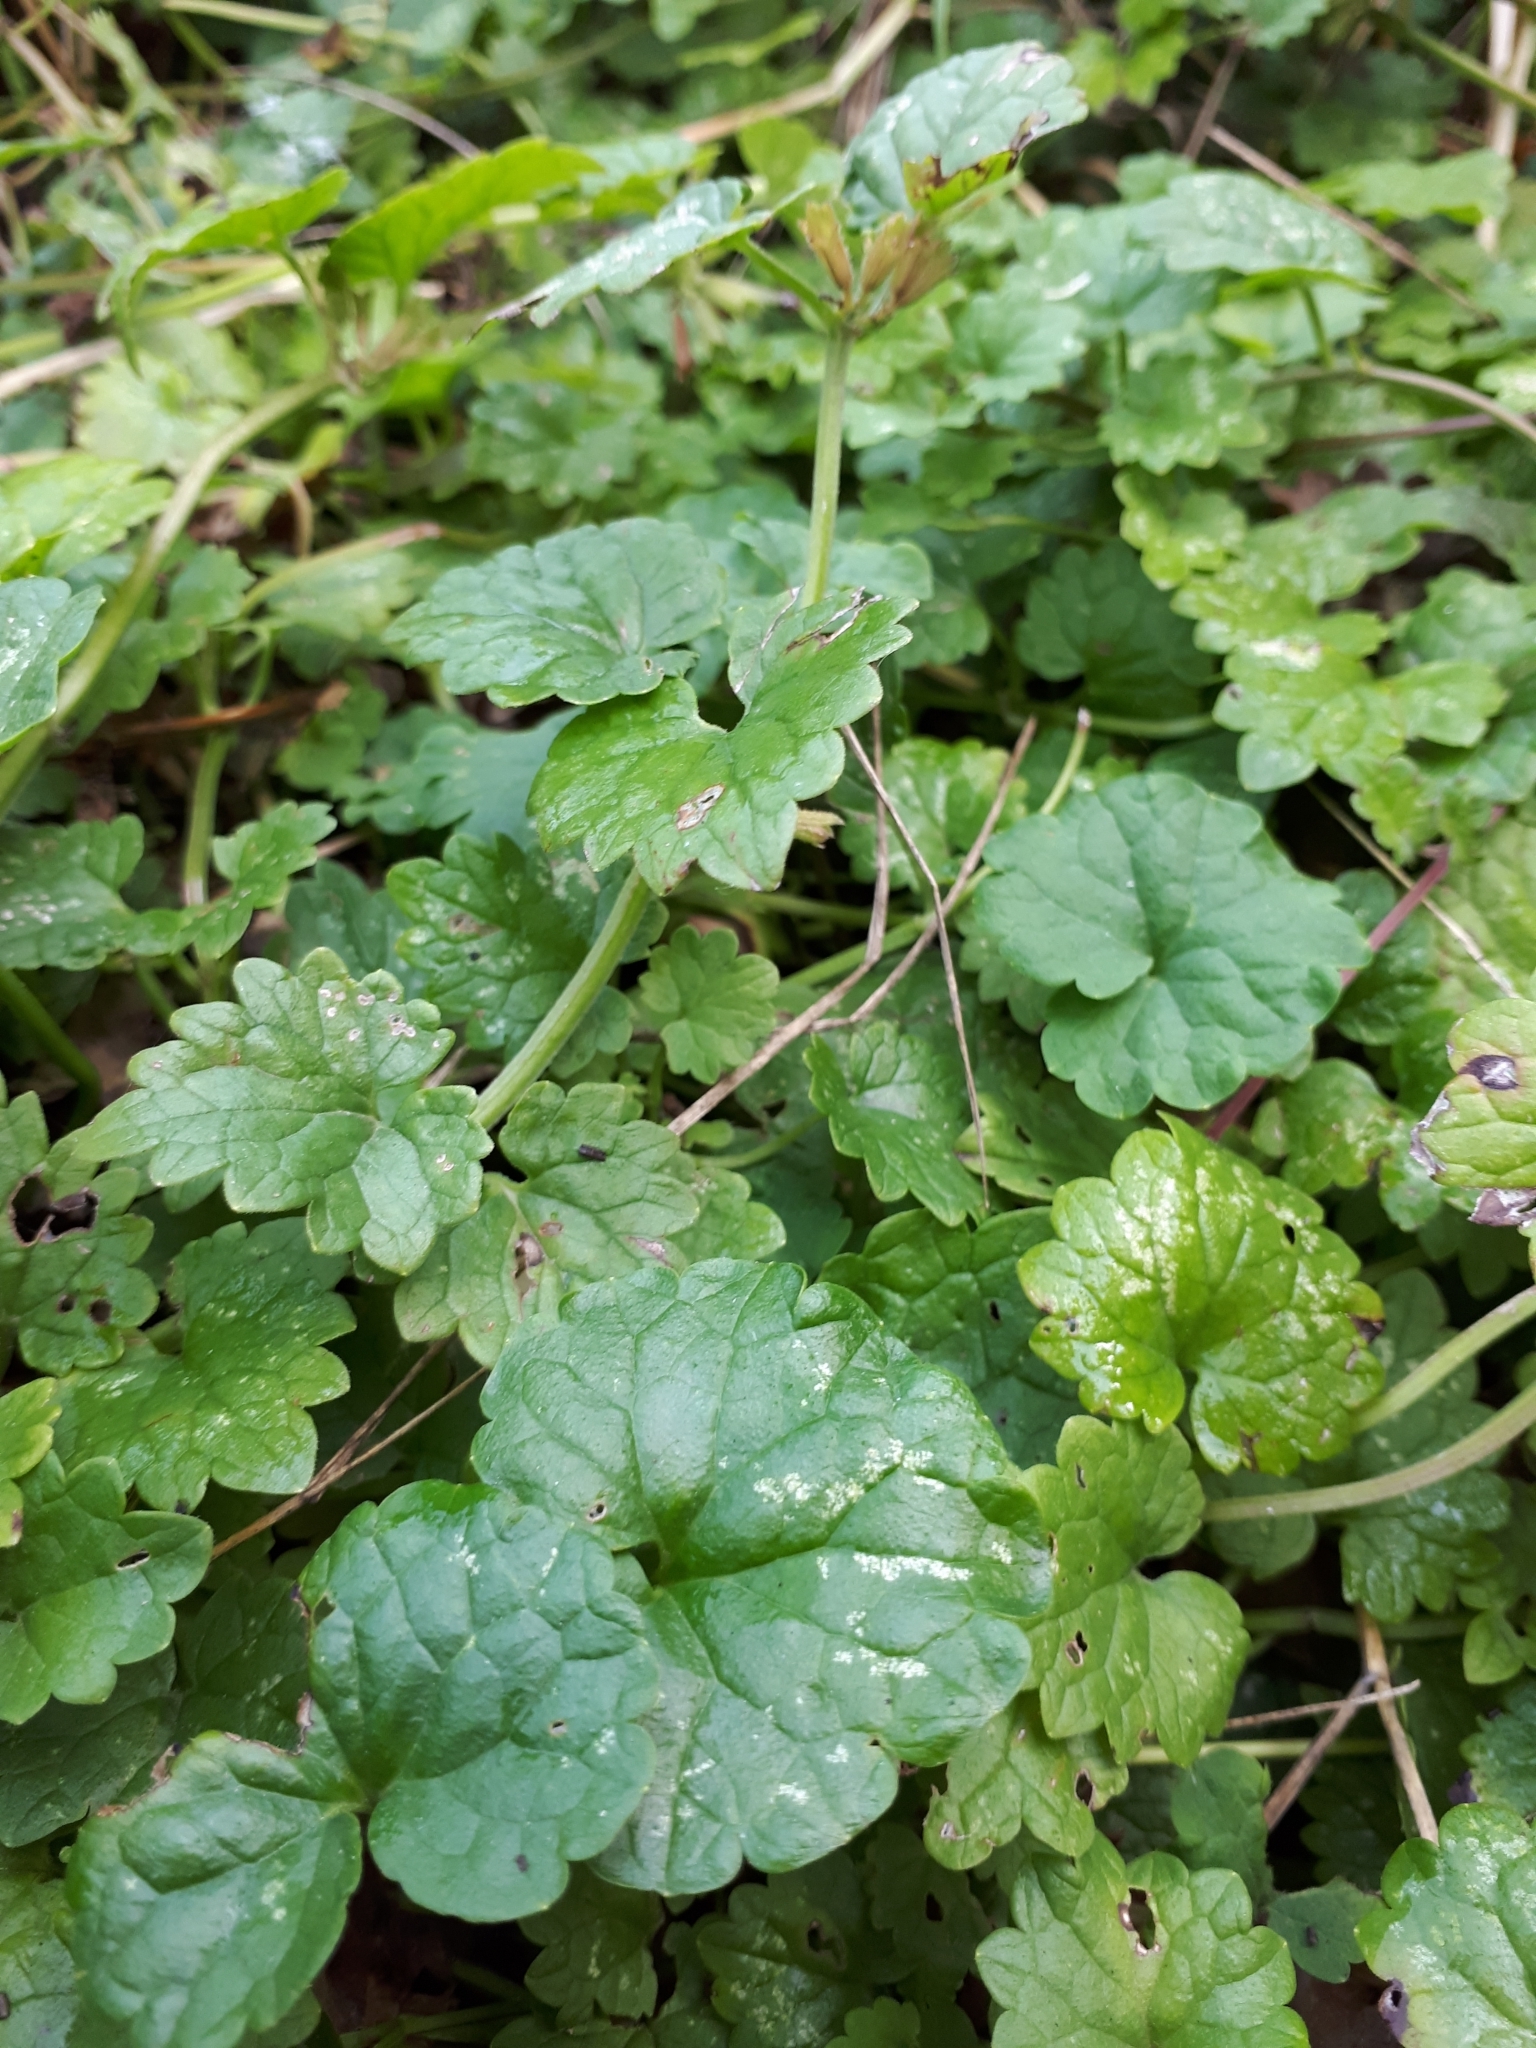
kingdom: Plantae
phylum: Tracheophyta
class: Magnoliopsida
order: Lamiales
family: Lamiaceae
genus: Glechoma
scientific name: Glechoma hederacea
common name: Ground ivy
